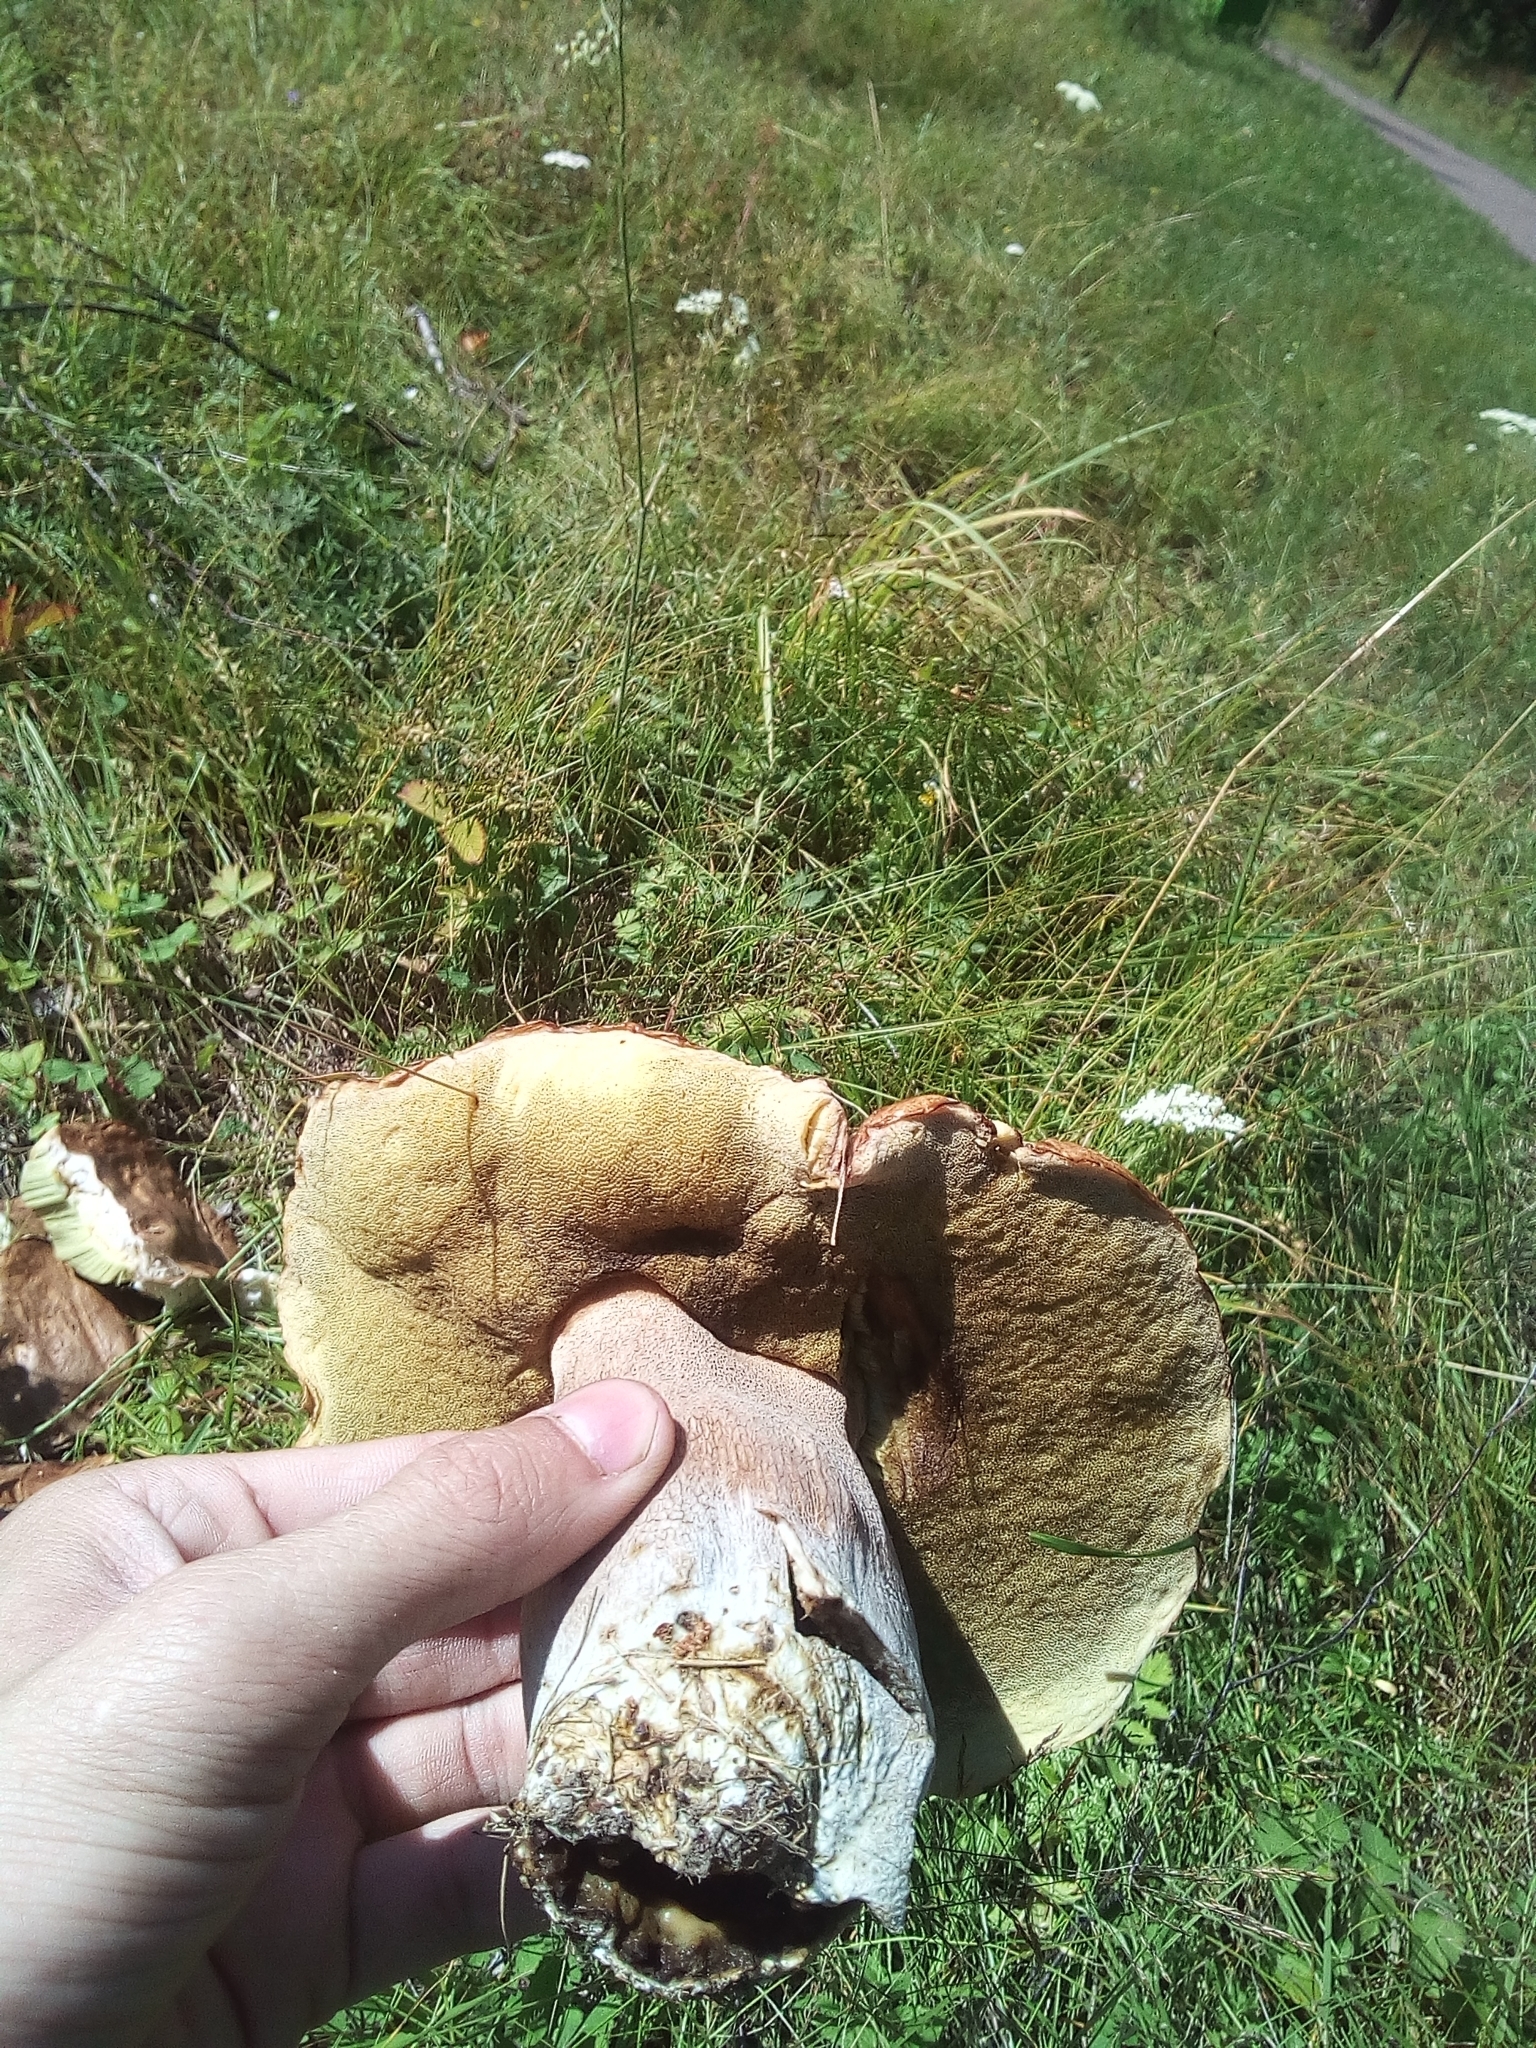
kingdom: Fungi
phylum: Basidiomycota
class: Agaricomycetes
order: Boletales
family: Boletaceae
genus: Boletus
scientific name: Boletus edulis
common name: Cep
